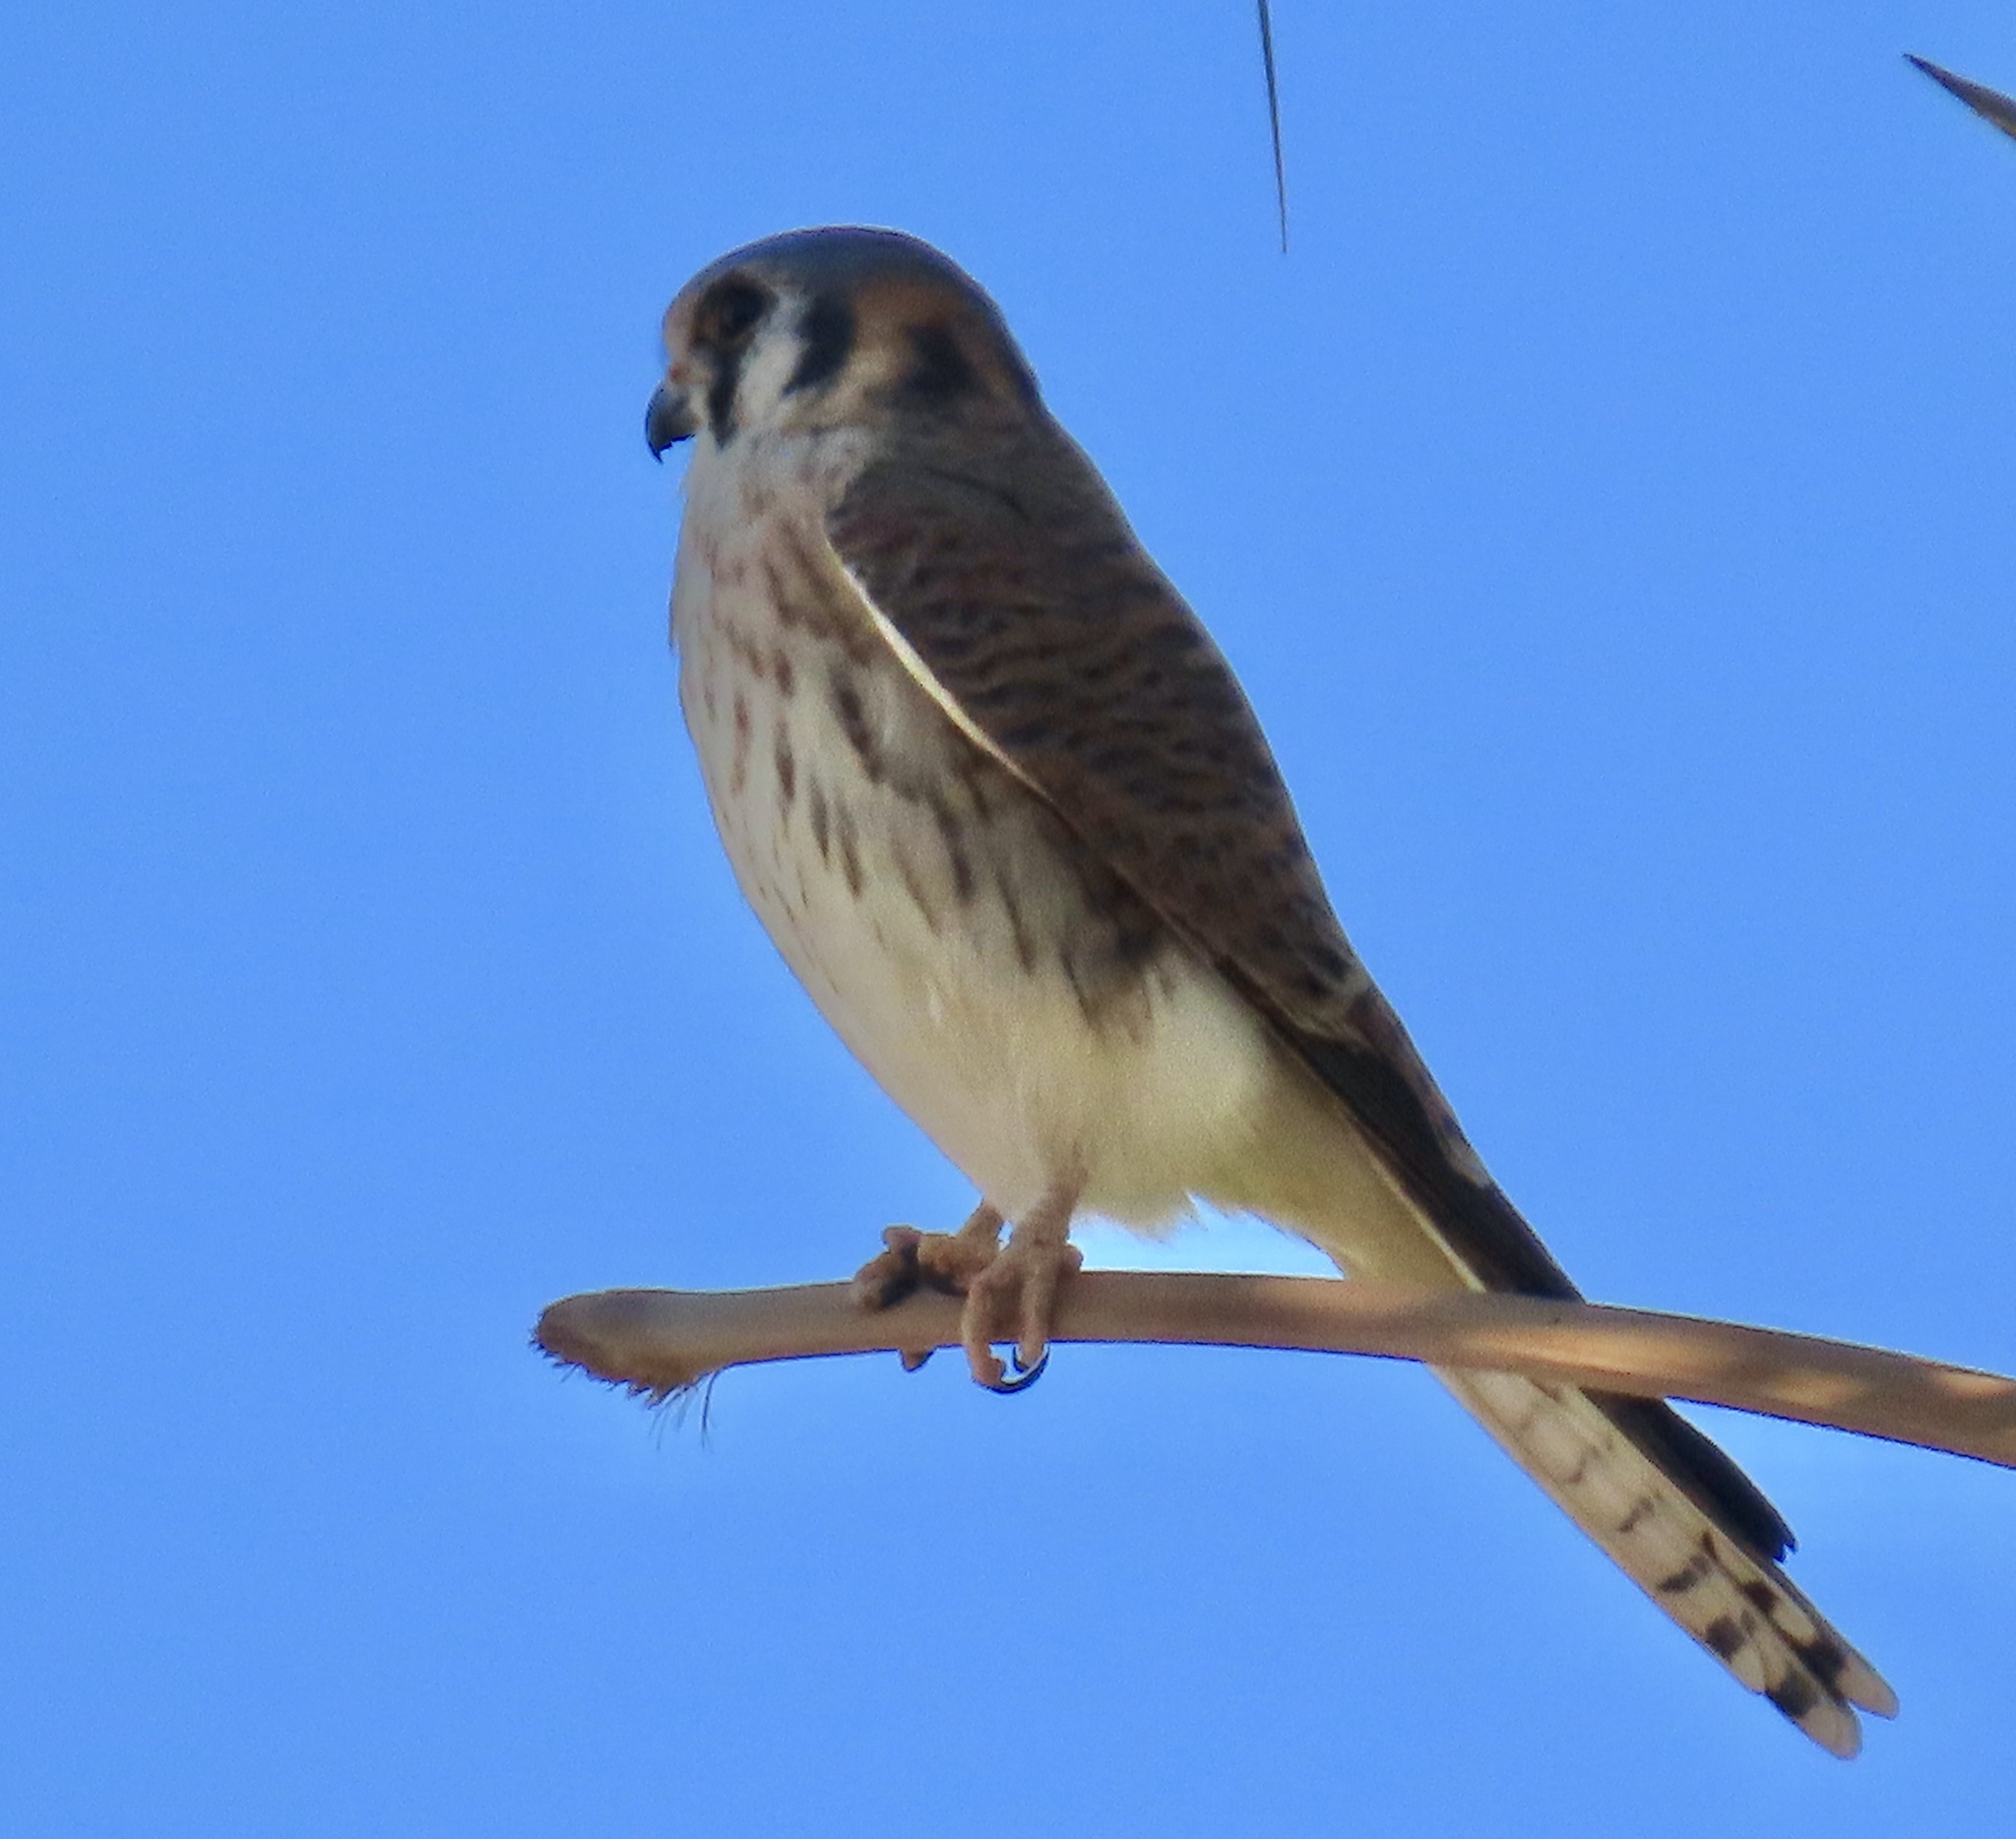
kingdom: Animalia
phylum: Chordata
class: Aves
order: Falconiformes
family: Falconidae
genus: Falco
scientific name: Falco sparverius
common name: American kestrel
